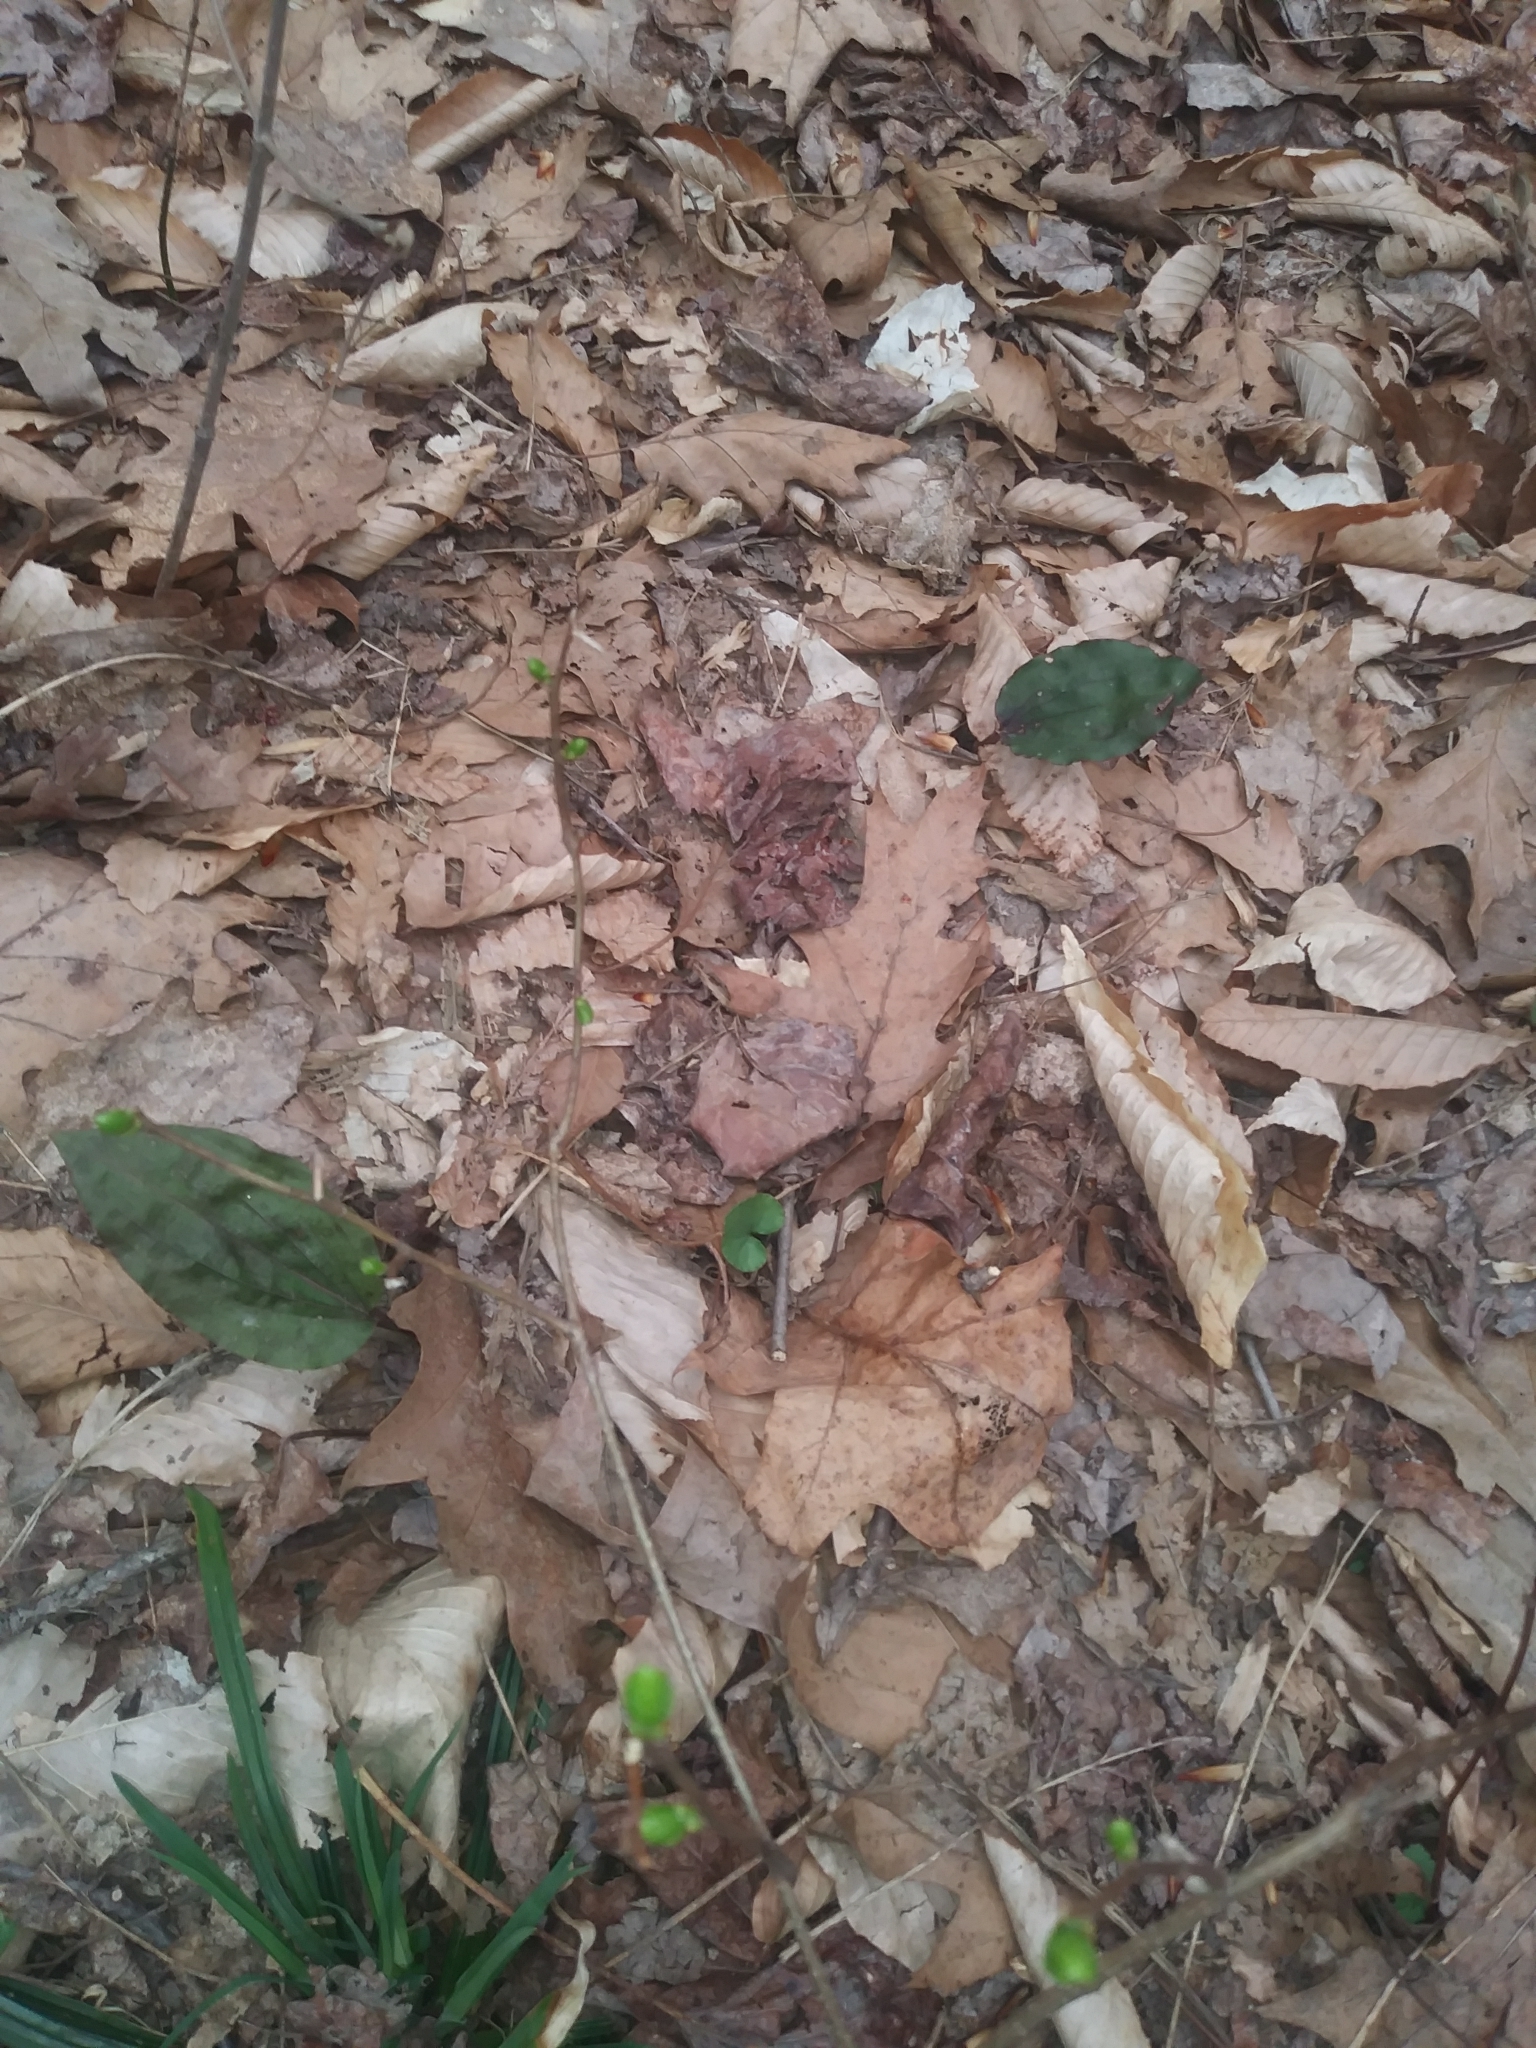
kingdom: Plantae
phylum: Tracheophyta
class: Liliopsida
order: Asparagales
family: Orchidaceae
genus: Tipularia
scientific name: Tipularia discolor
